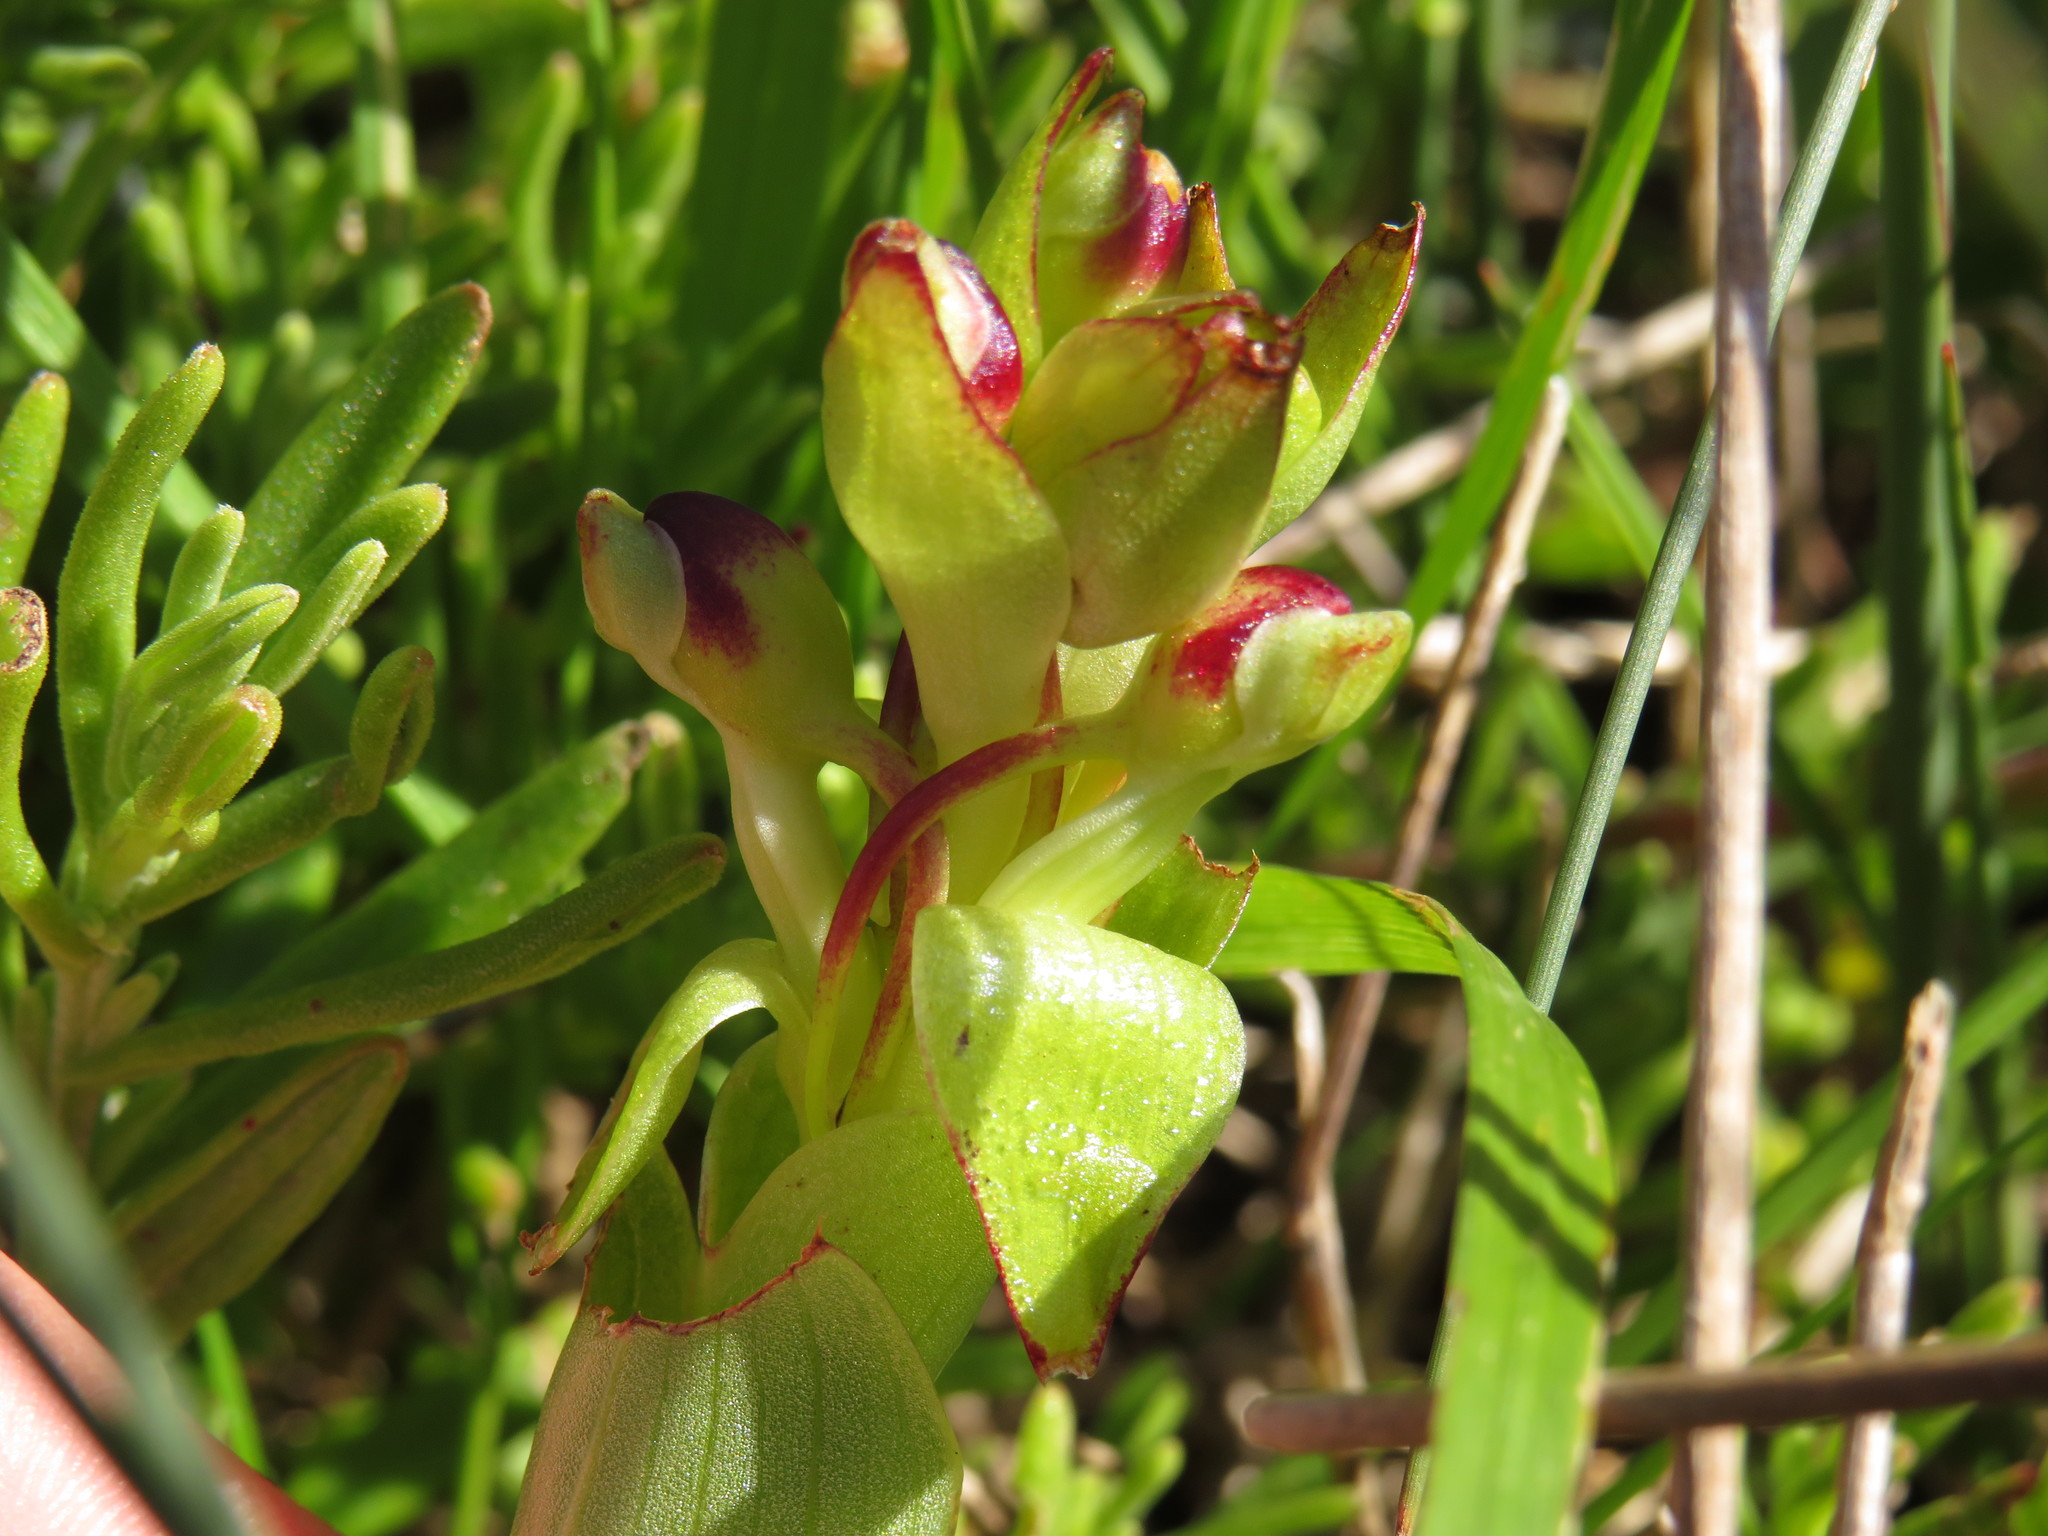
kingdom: Plantae
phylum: Tracheophyta
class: Liliopsida
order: Asparagales
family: Orchidaceae
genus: Satyrium
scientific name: Satyrium odorum
